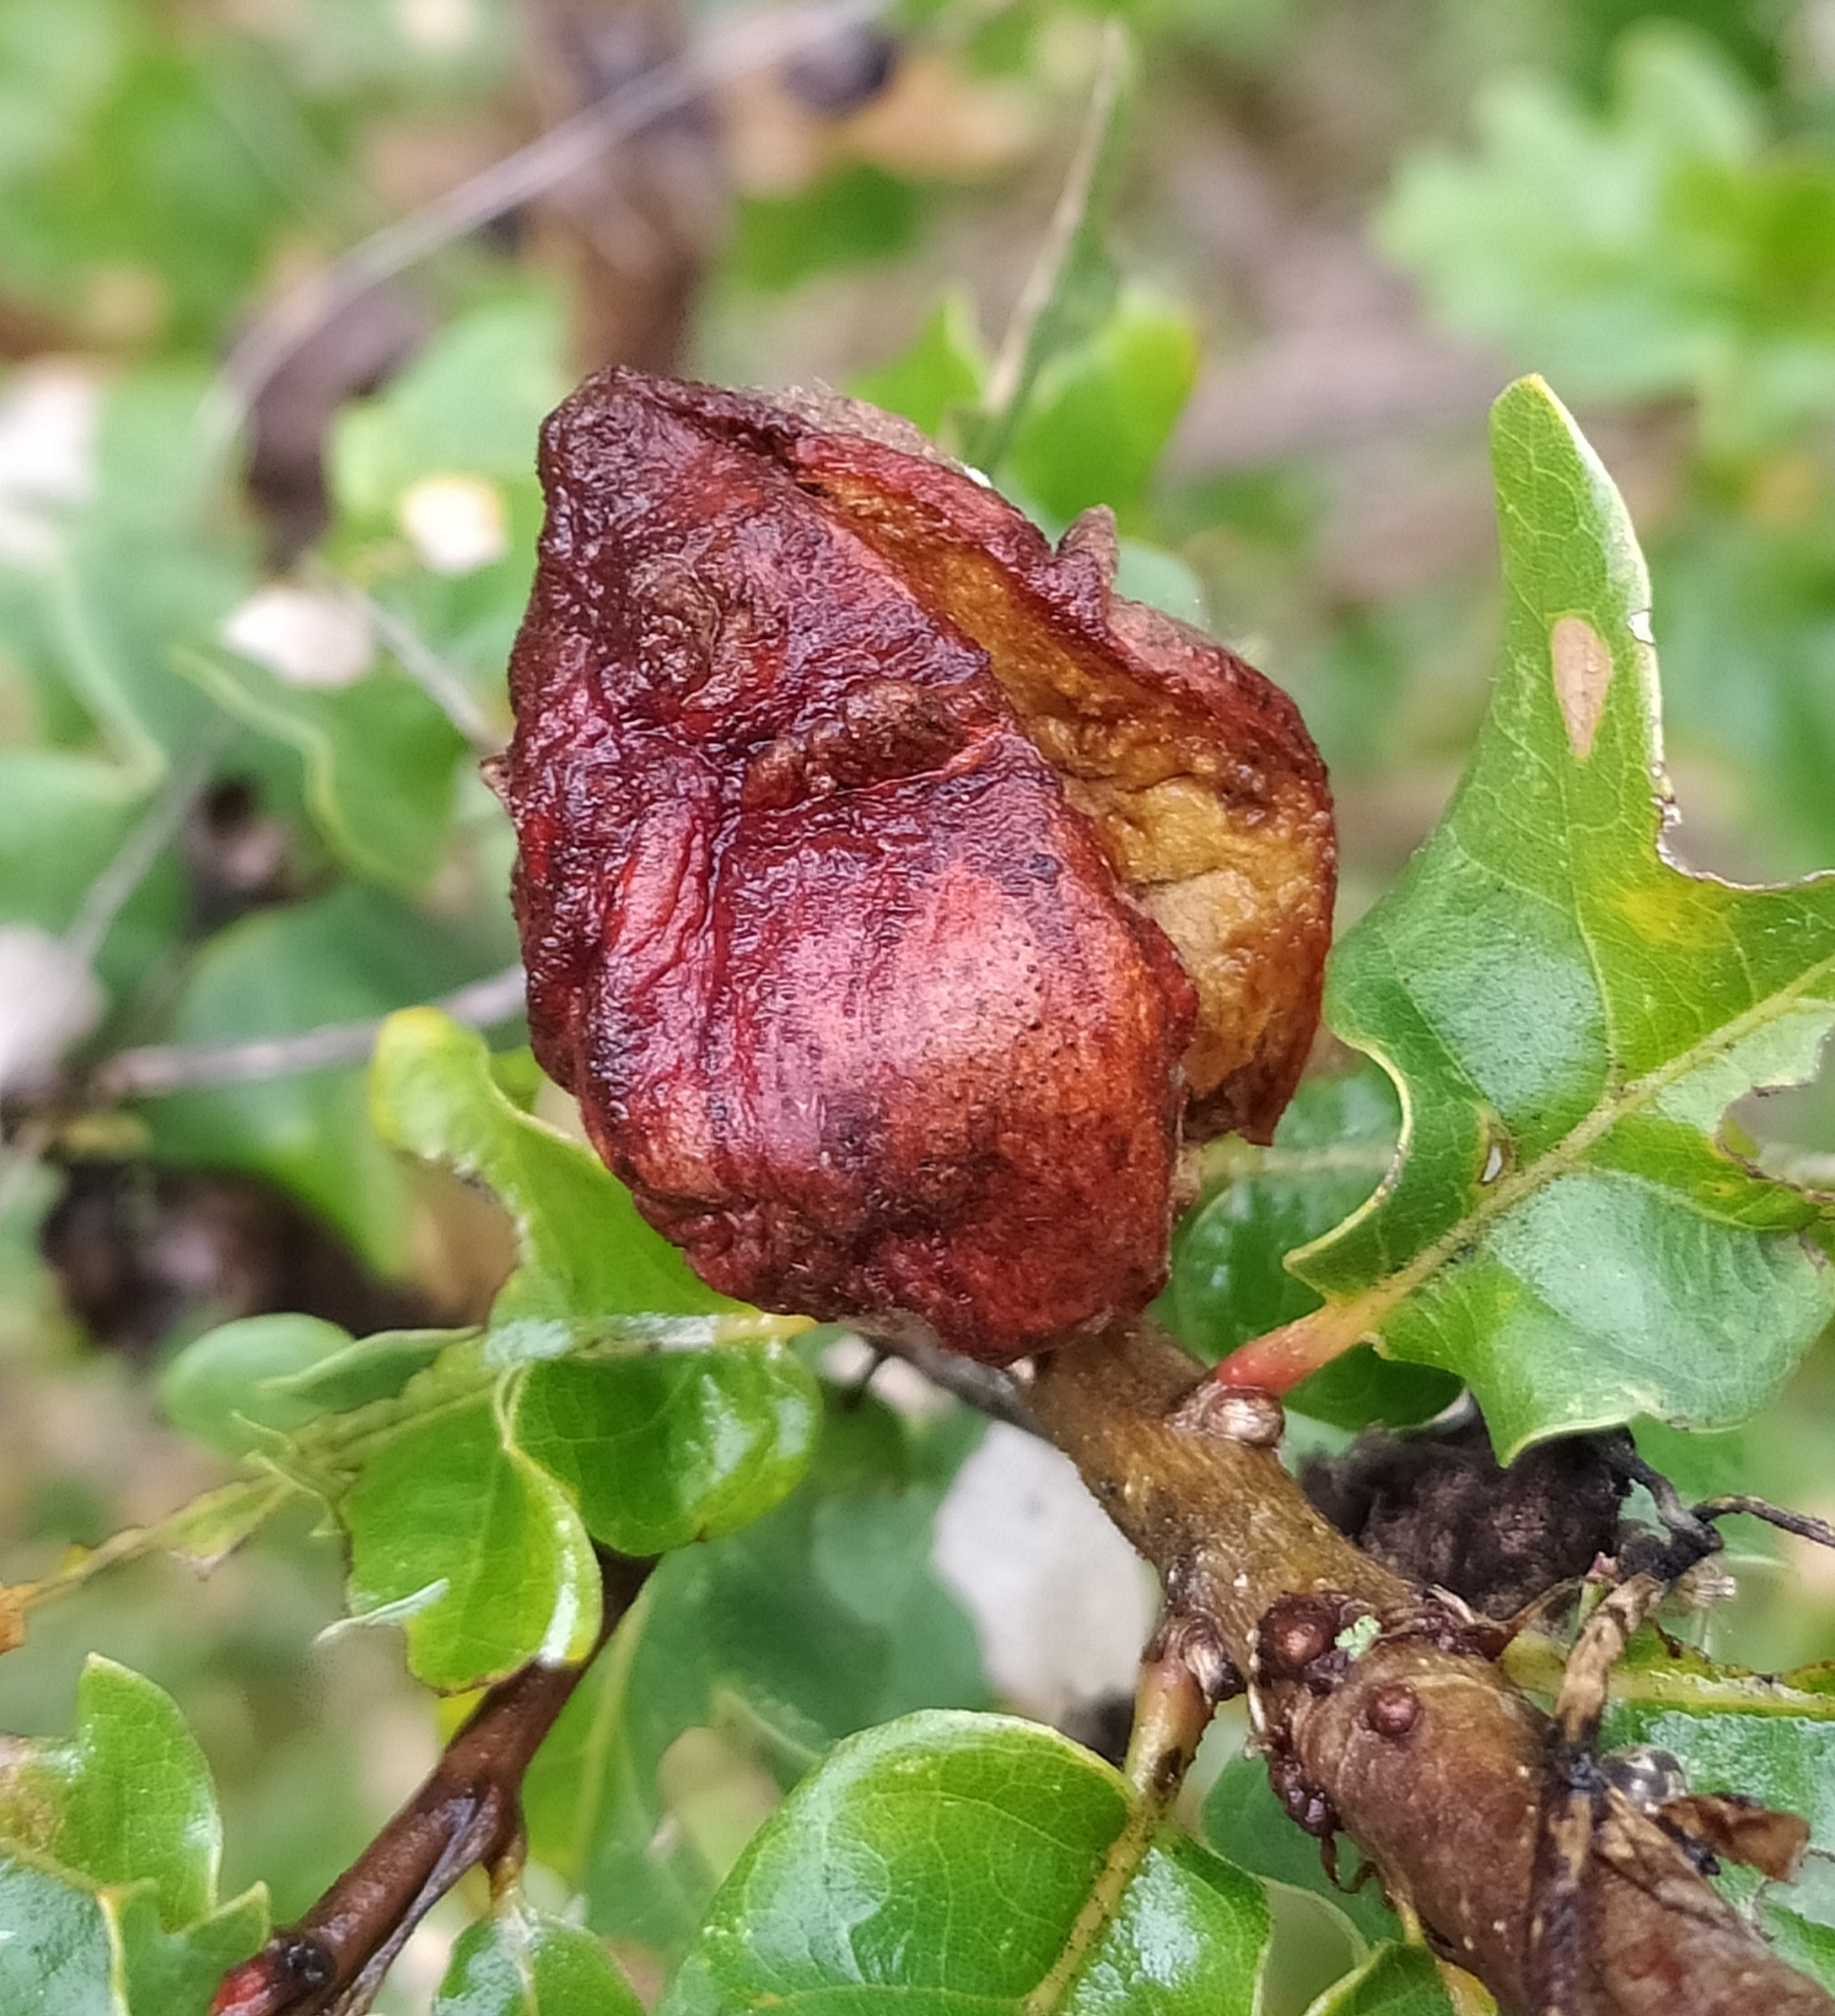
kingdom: Animalia
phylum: Arthropoda
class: Insecta
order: Hymenoptera
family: Cynipidae
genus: Andricus
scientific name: Andricus quercustozae
